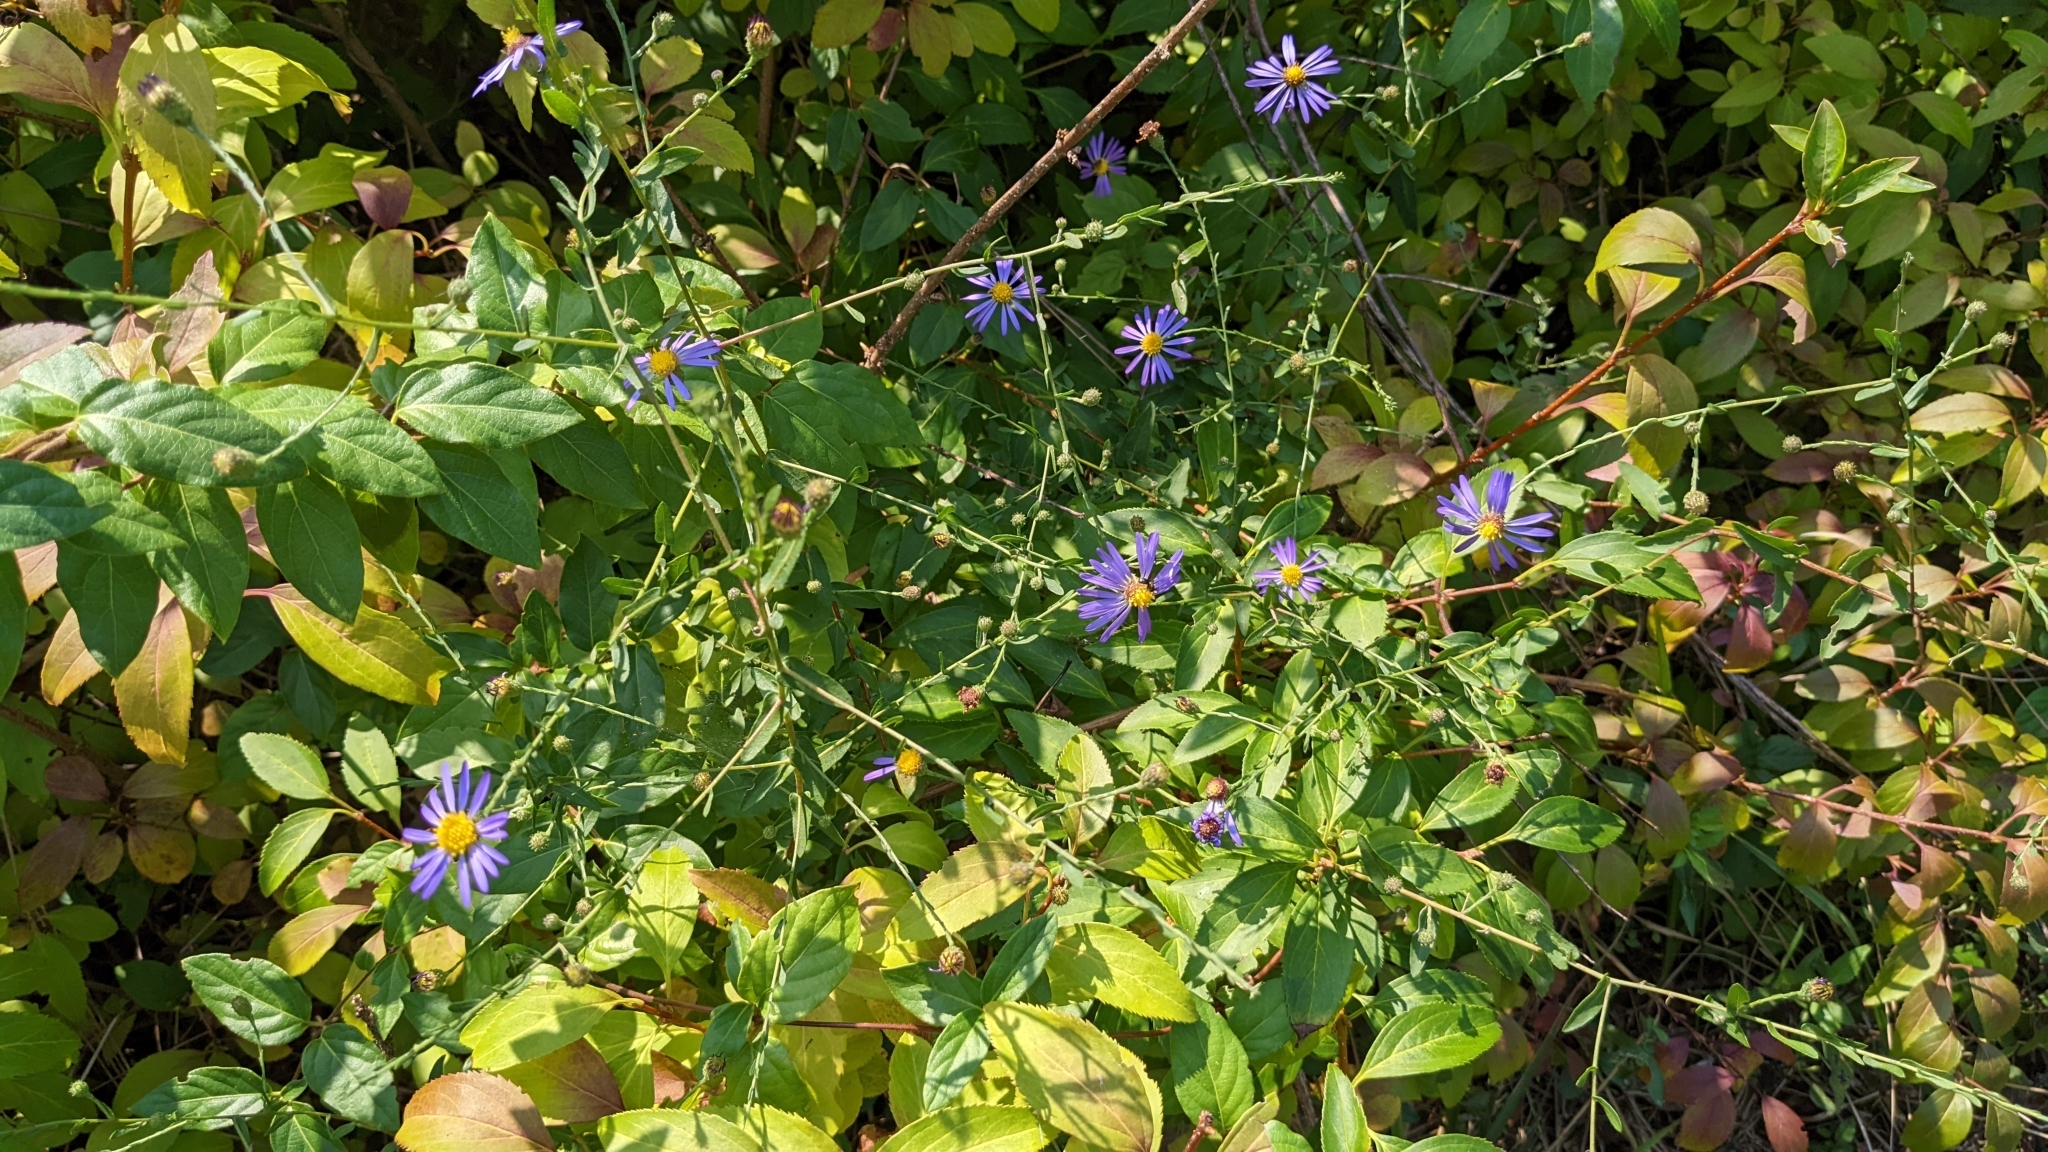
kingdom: Plantae
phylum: Tracheophyta
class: Magnoliopsida
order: Asterales
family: Asteraceae
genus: Symphyotrichum
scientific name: Symphyotrichum patens
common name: Late purple aster
